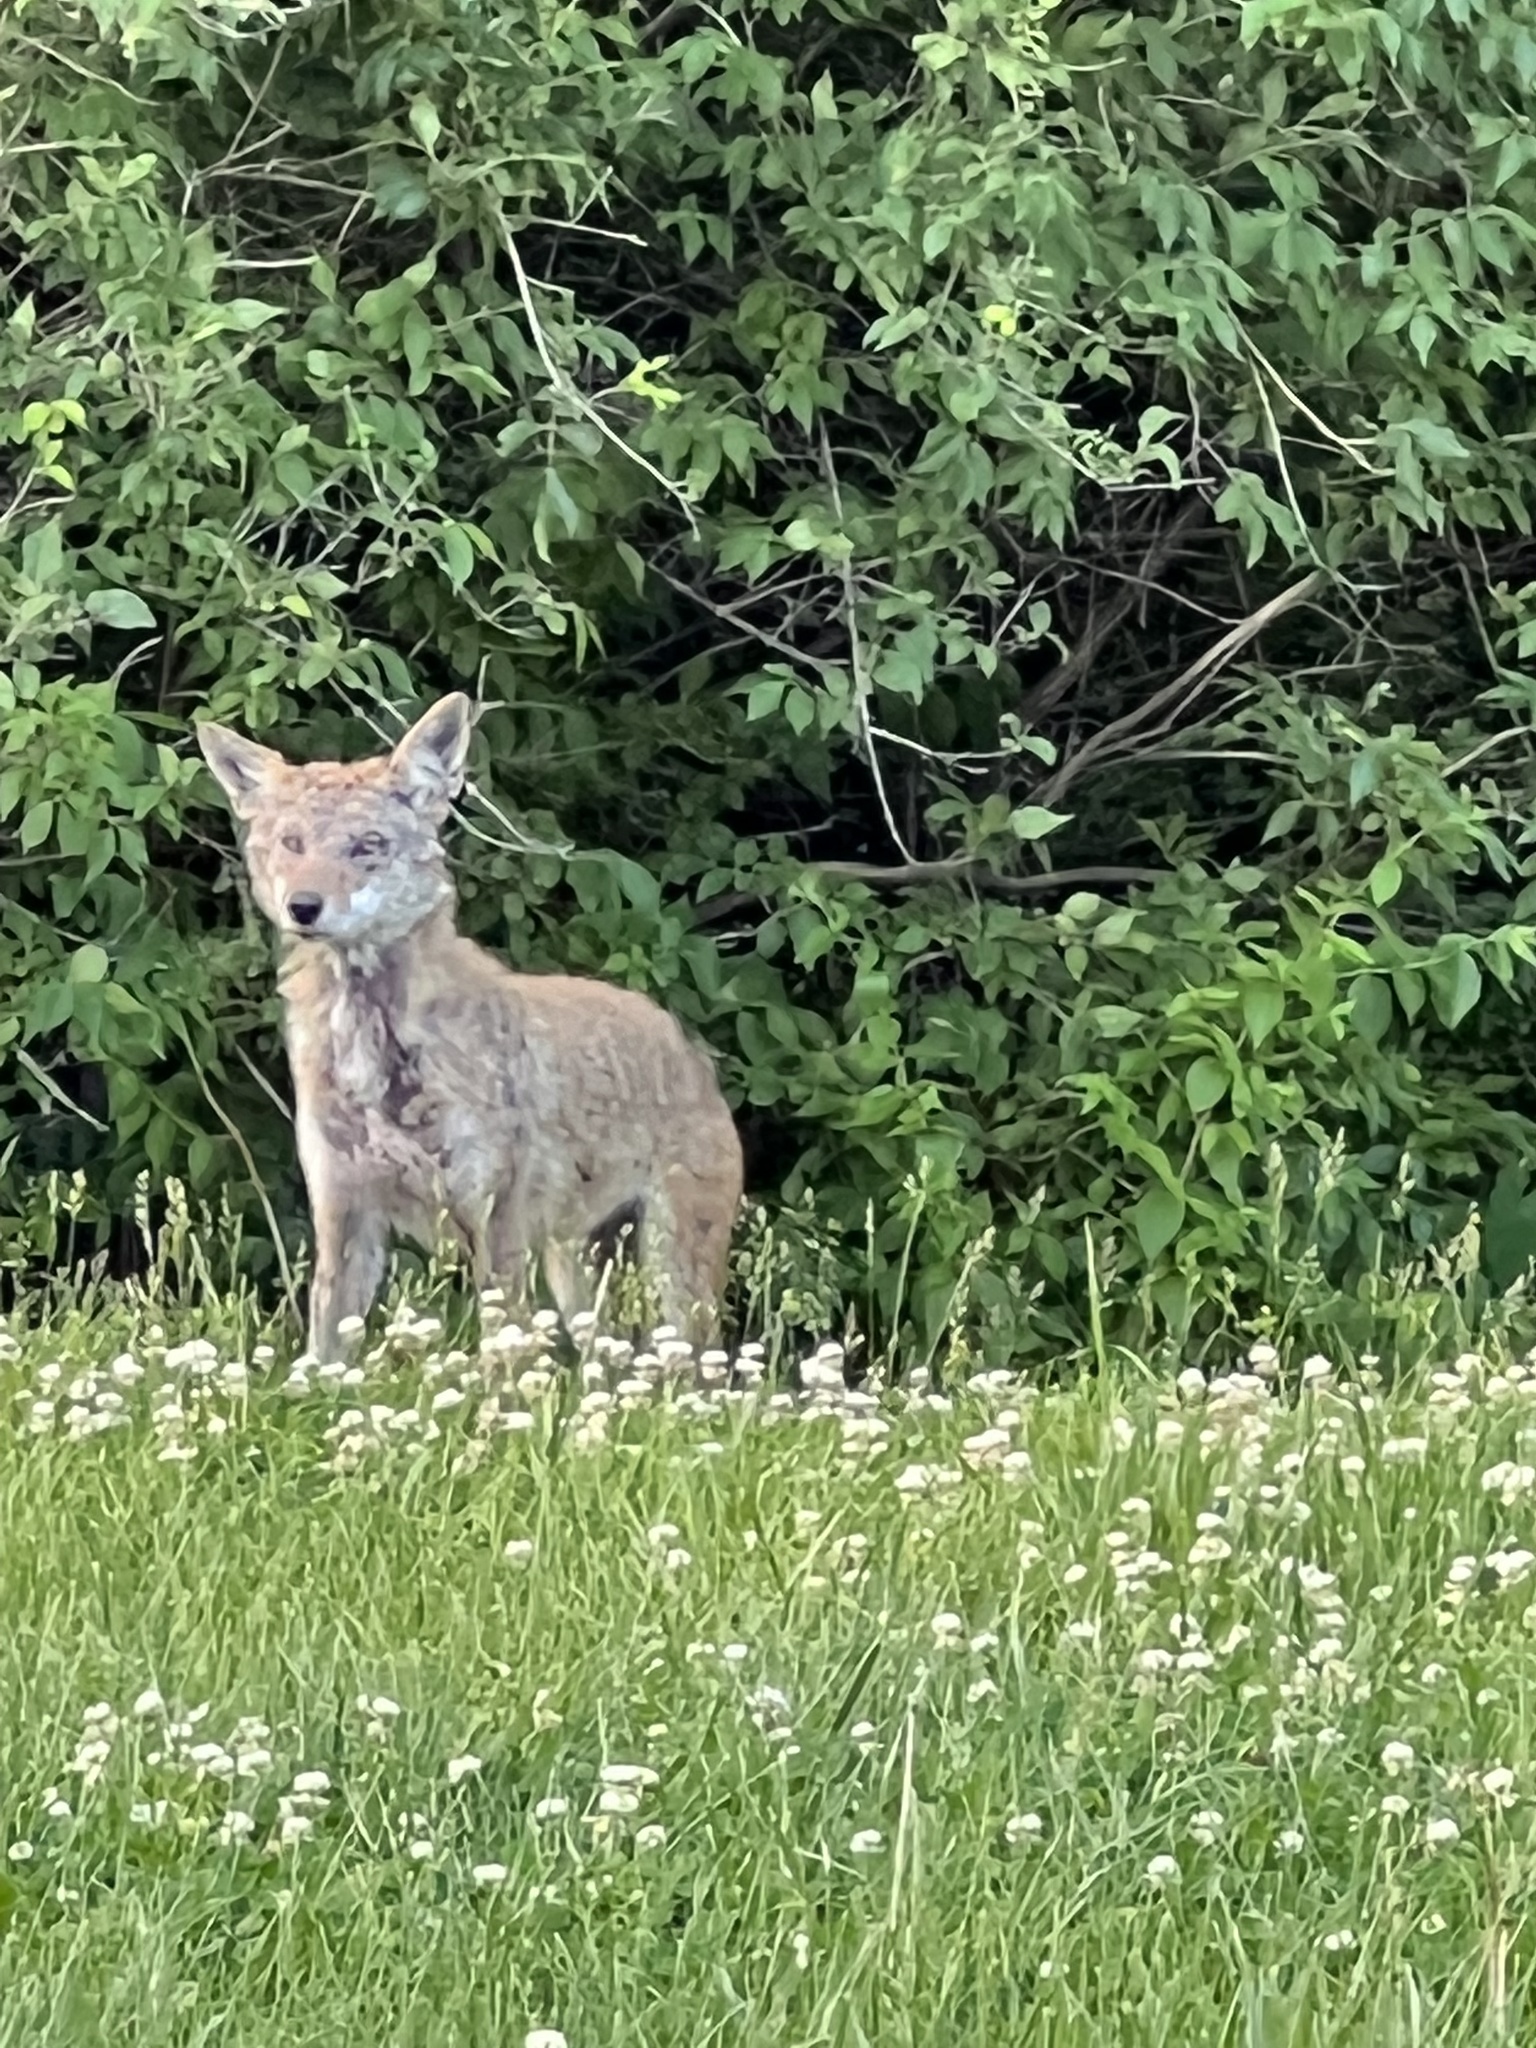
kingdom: Animalia
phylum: Chordata
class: Mammalia
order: Carnivora
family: Canidae
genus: Canis
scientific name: Canis latrans
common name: Coyote
